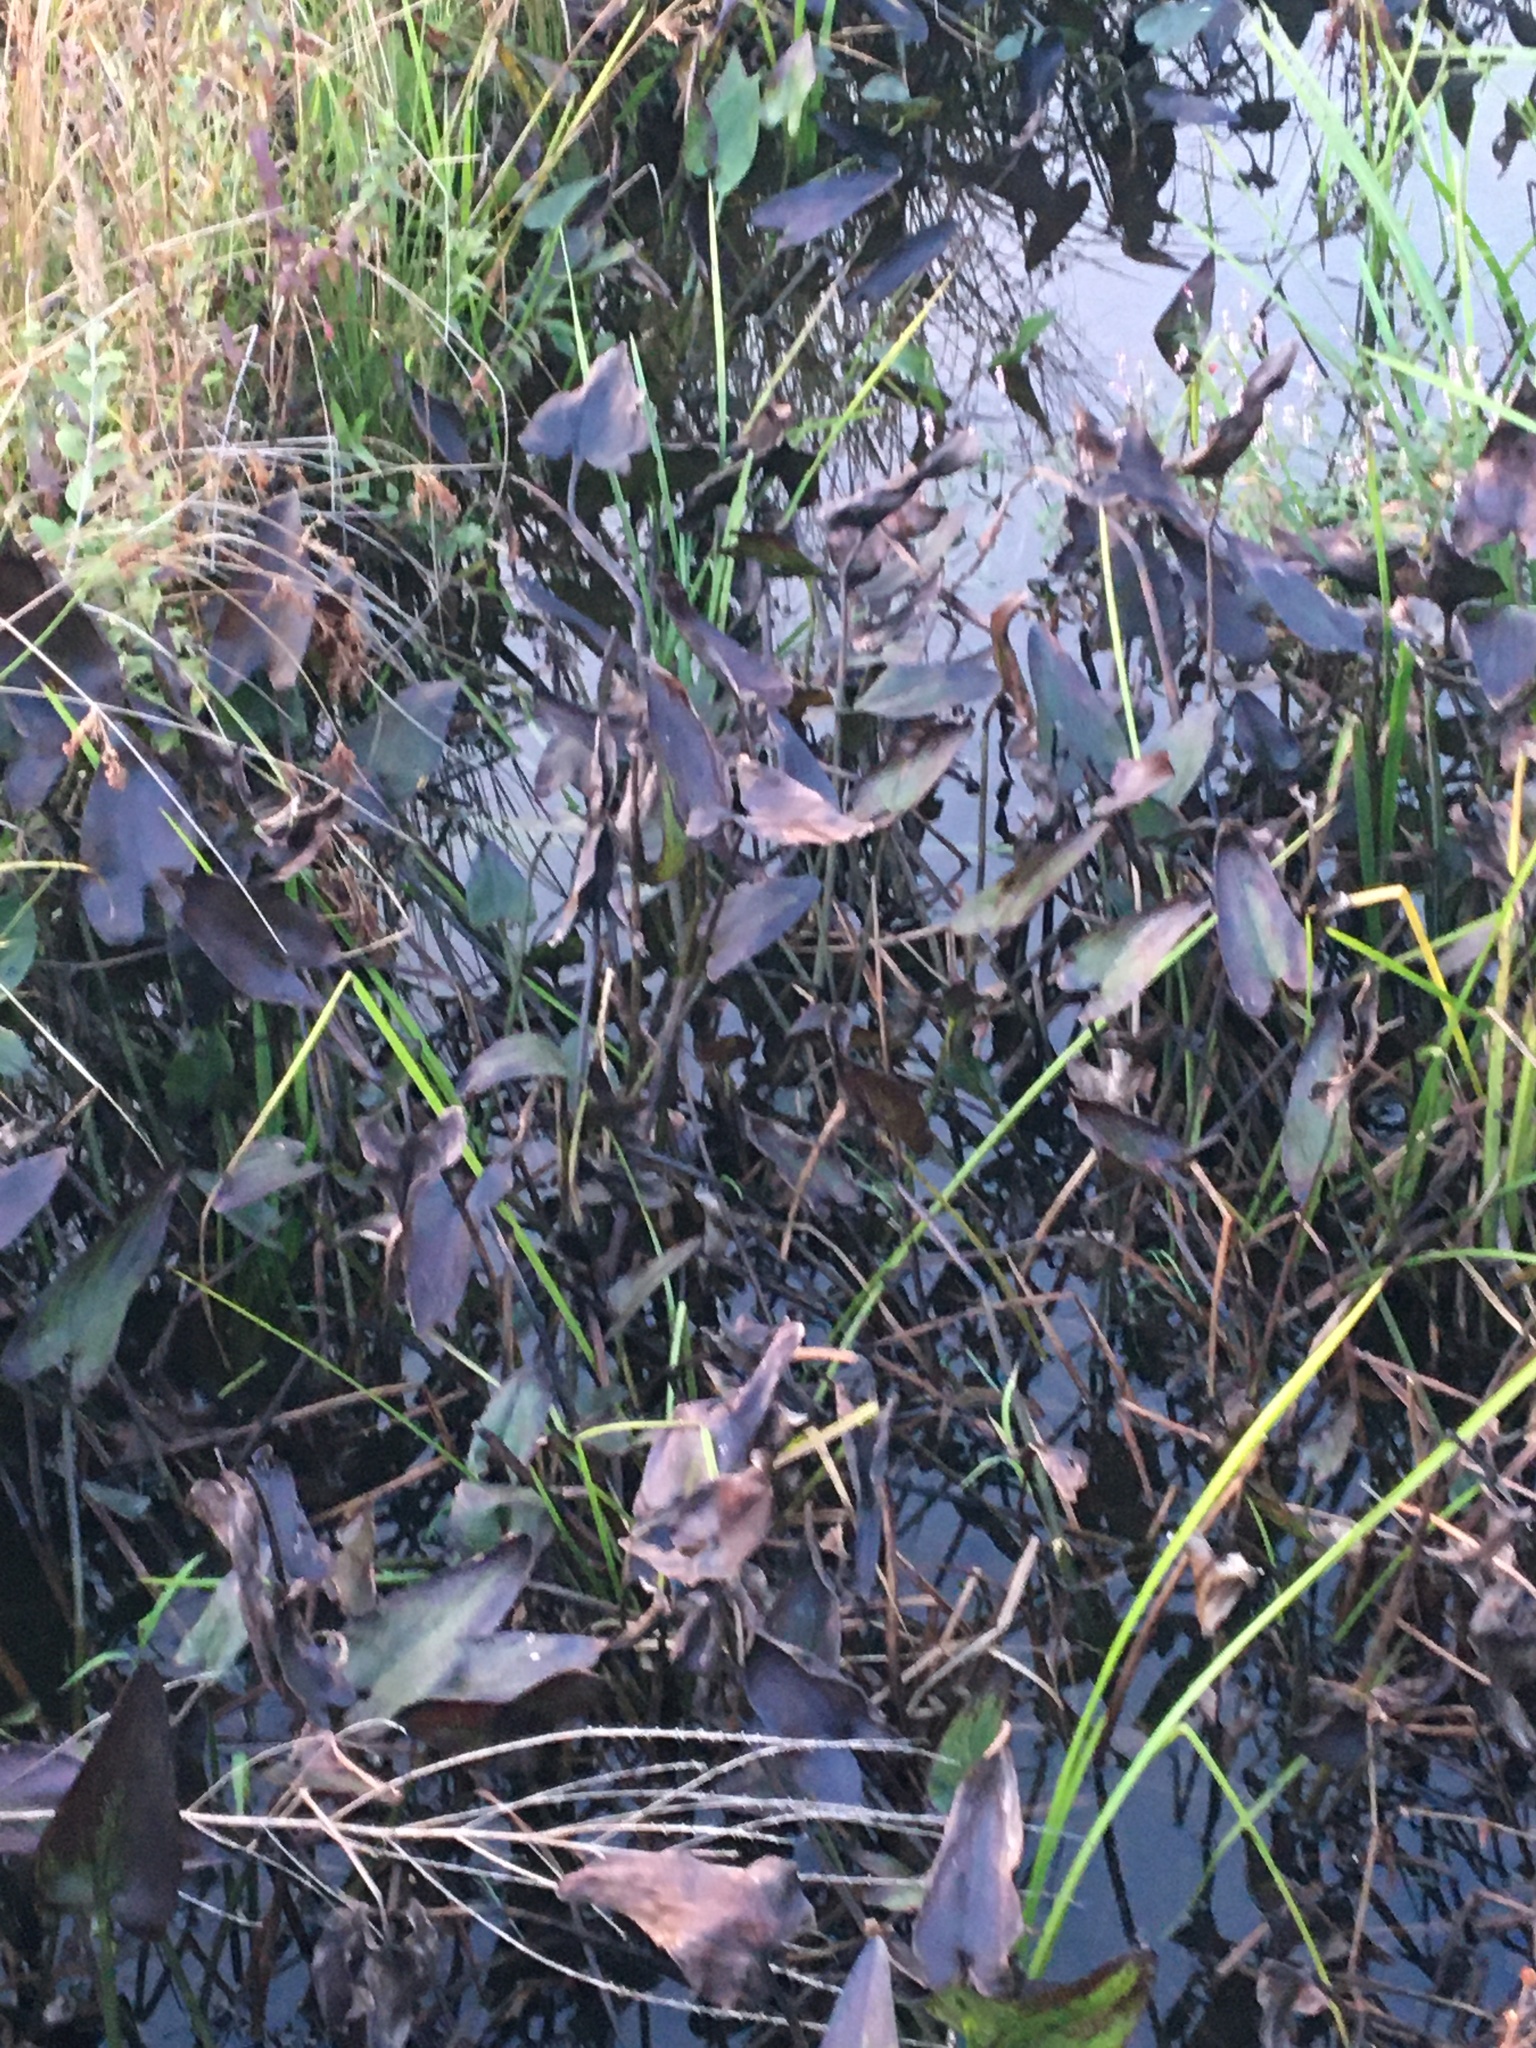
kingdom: Plantae
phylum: Tracheophyta
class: Liliopsida
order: Commelinales
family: Pontederiaceae
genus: Pontederia
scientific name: Pontederia cordata
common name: Pickerelweed
